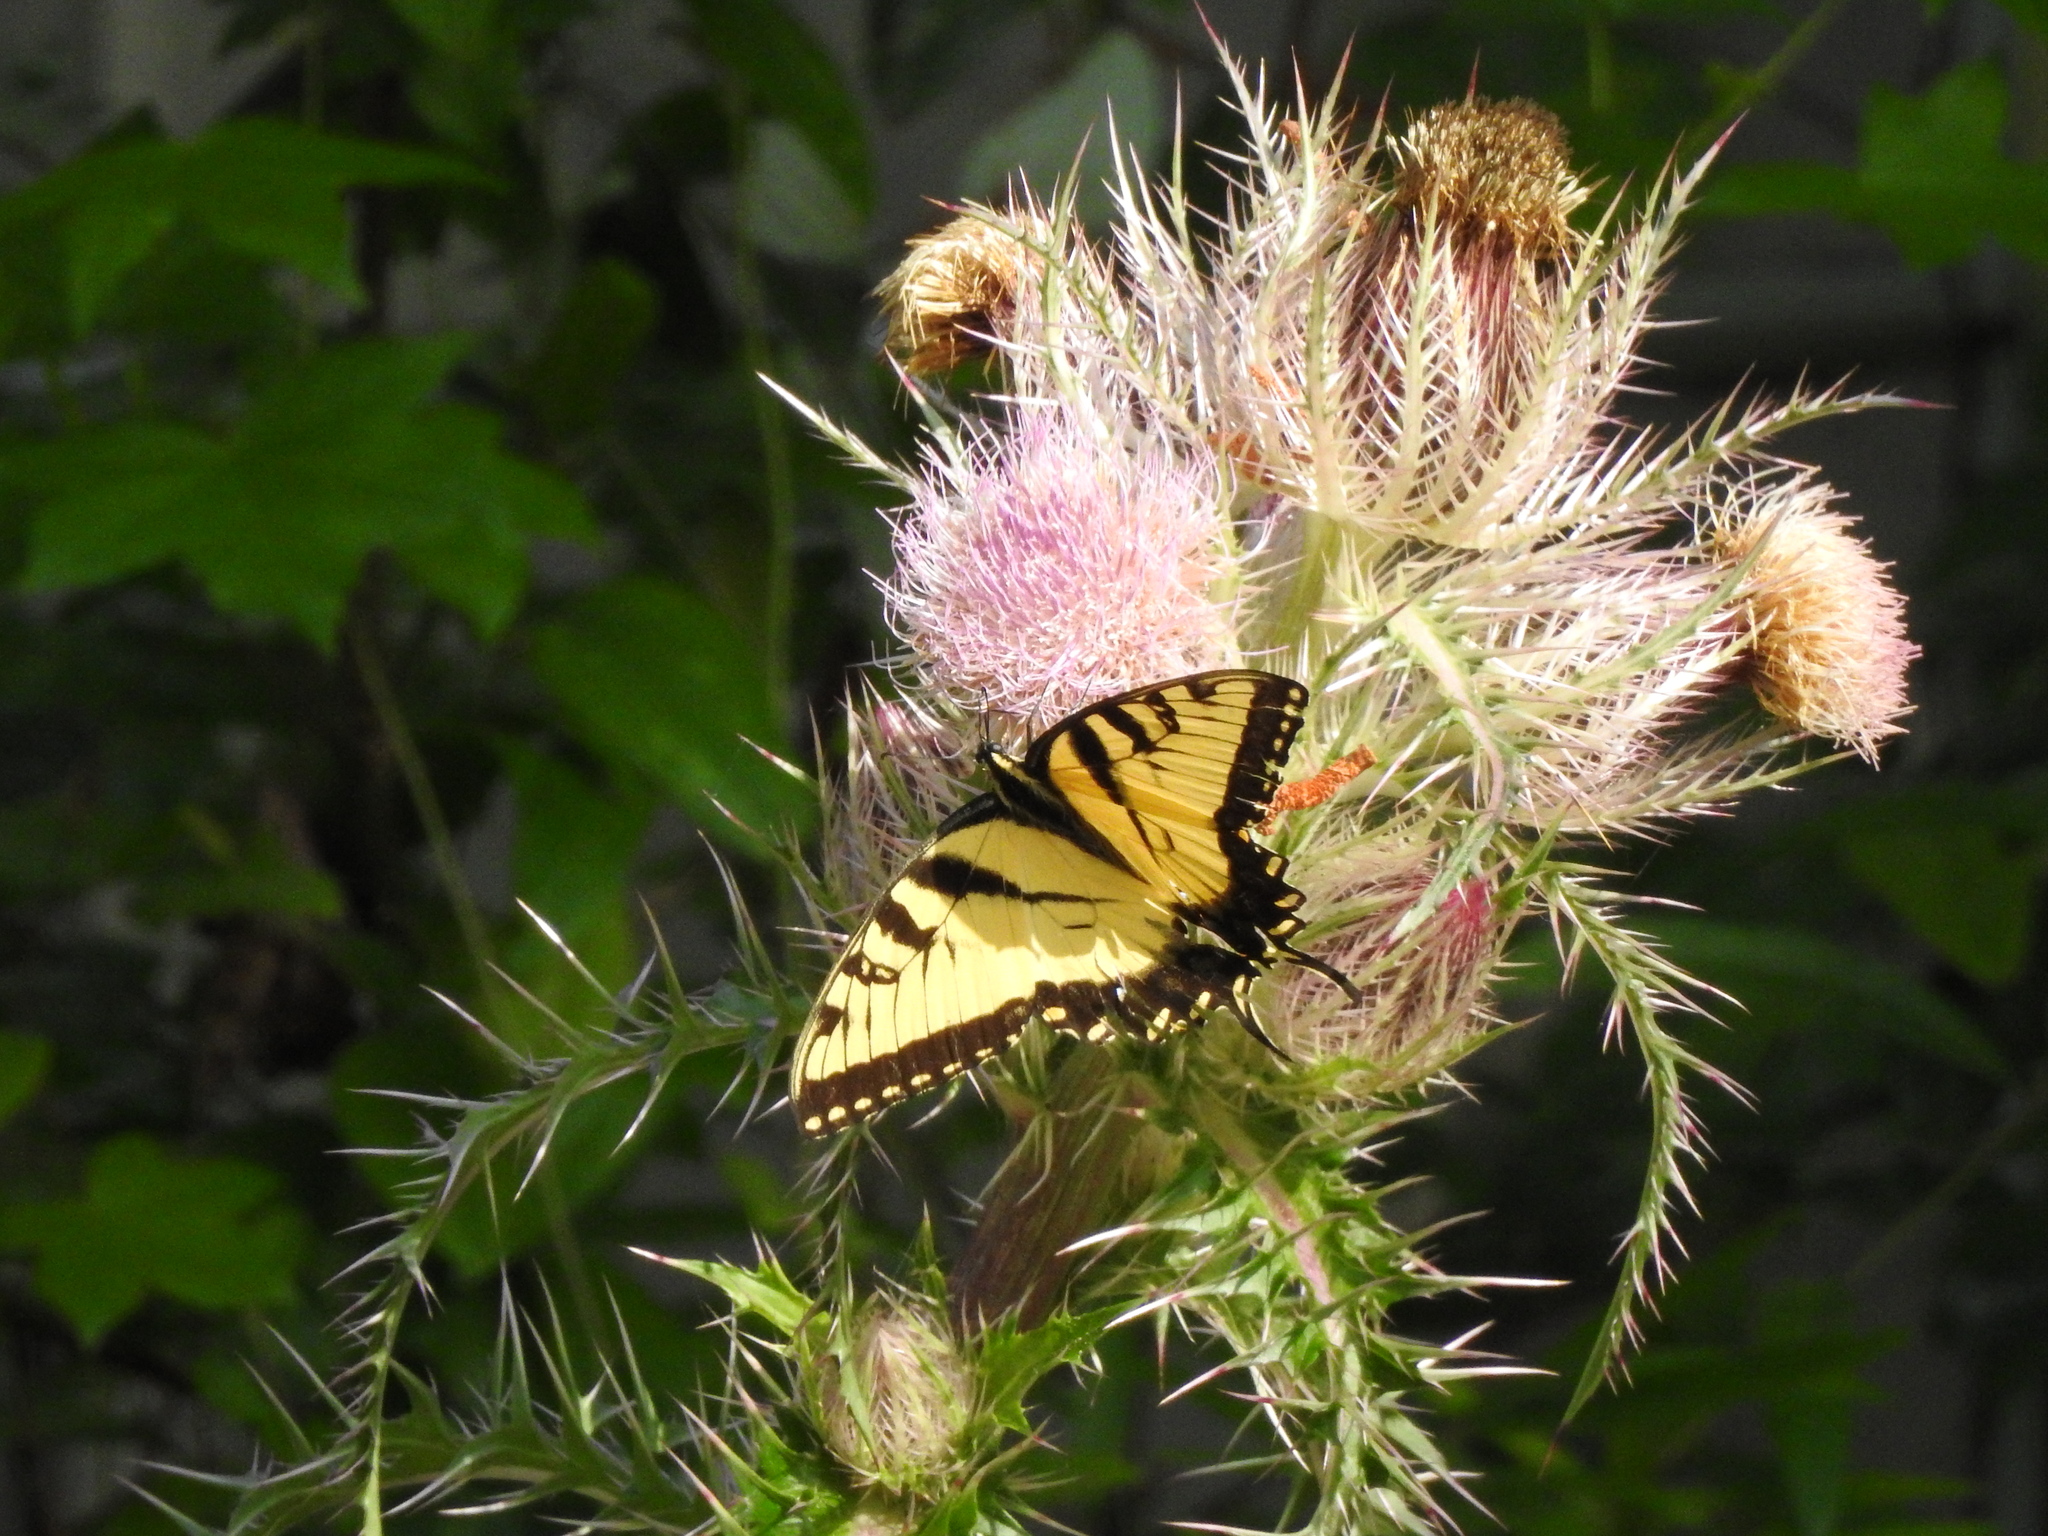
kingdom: Animalia
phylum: Arthropoda
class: Insecta
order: Lepidoptera
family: Papilionidae
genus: Papilio
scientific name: Papilio glaucus
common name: Tiger swallowtail
